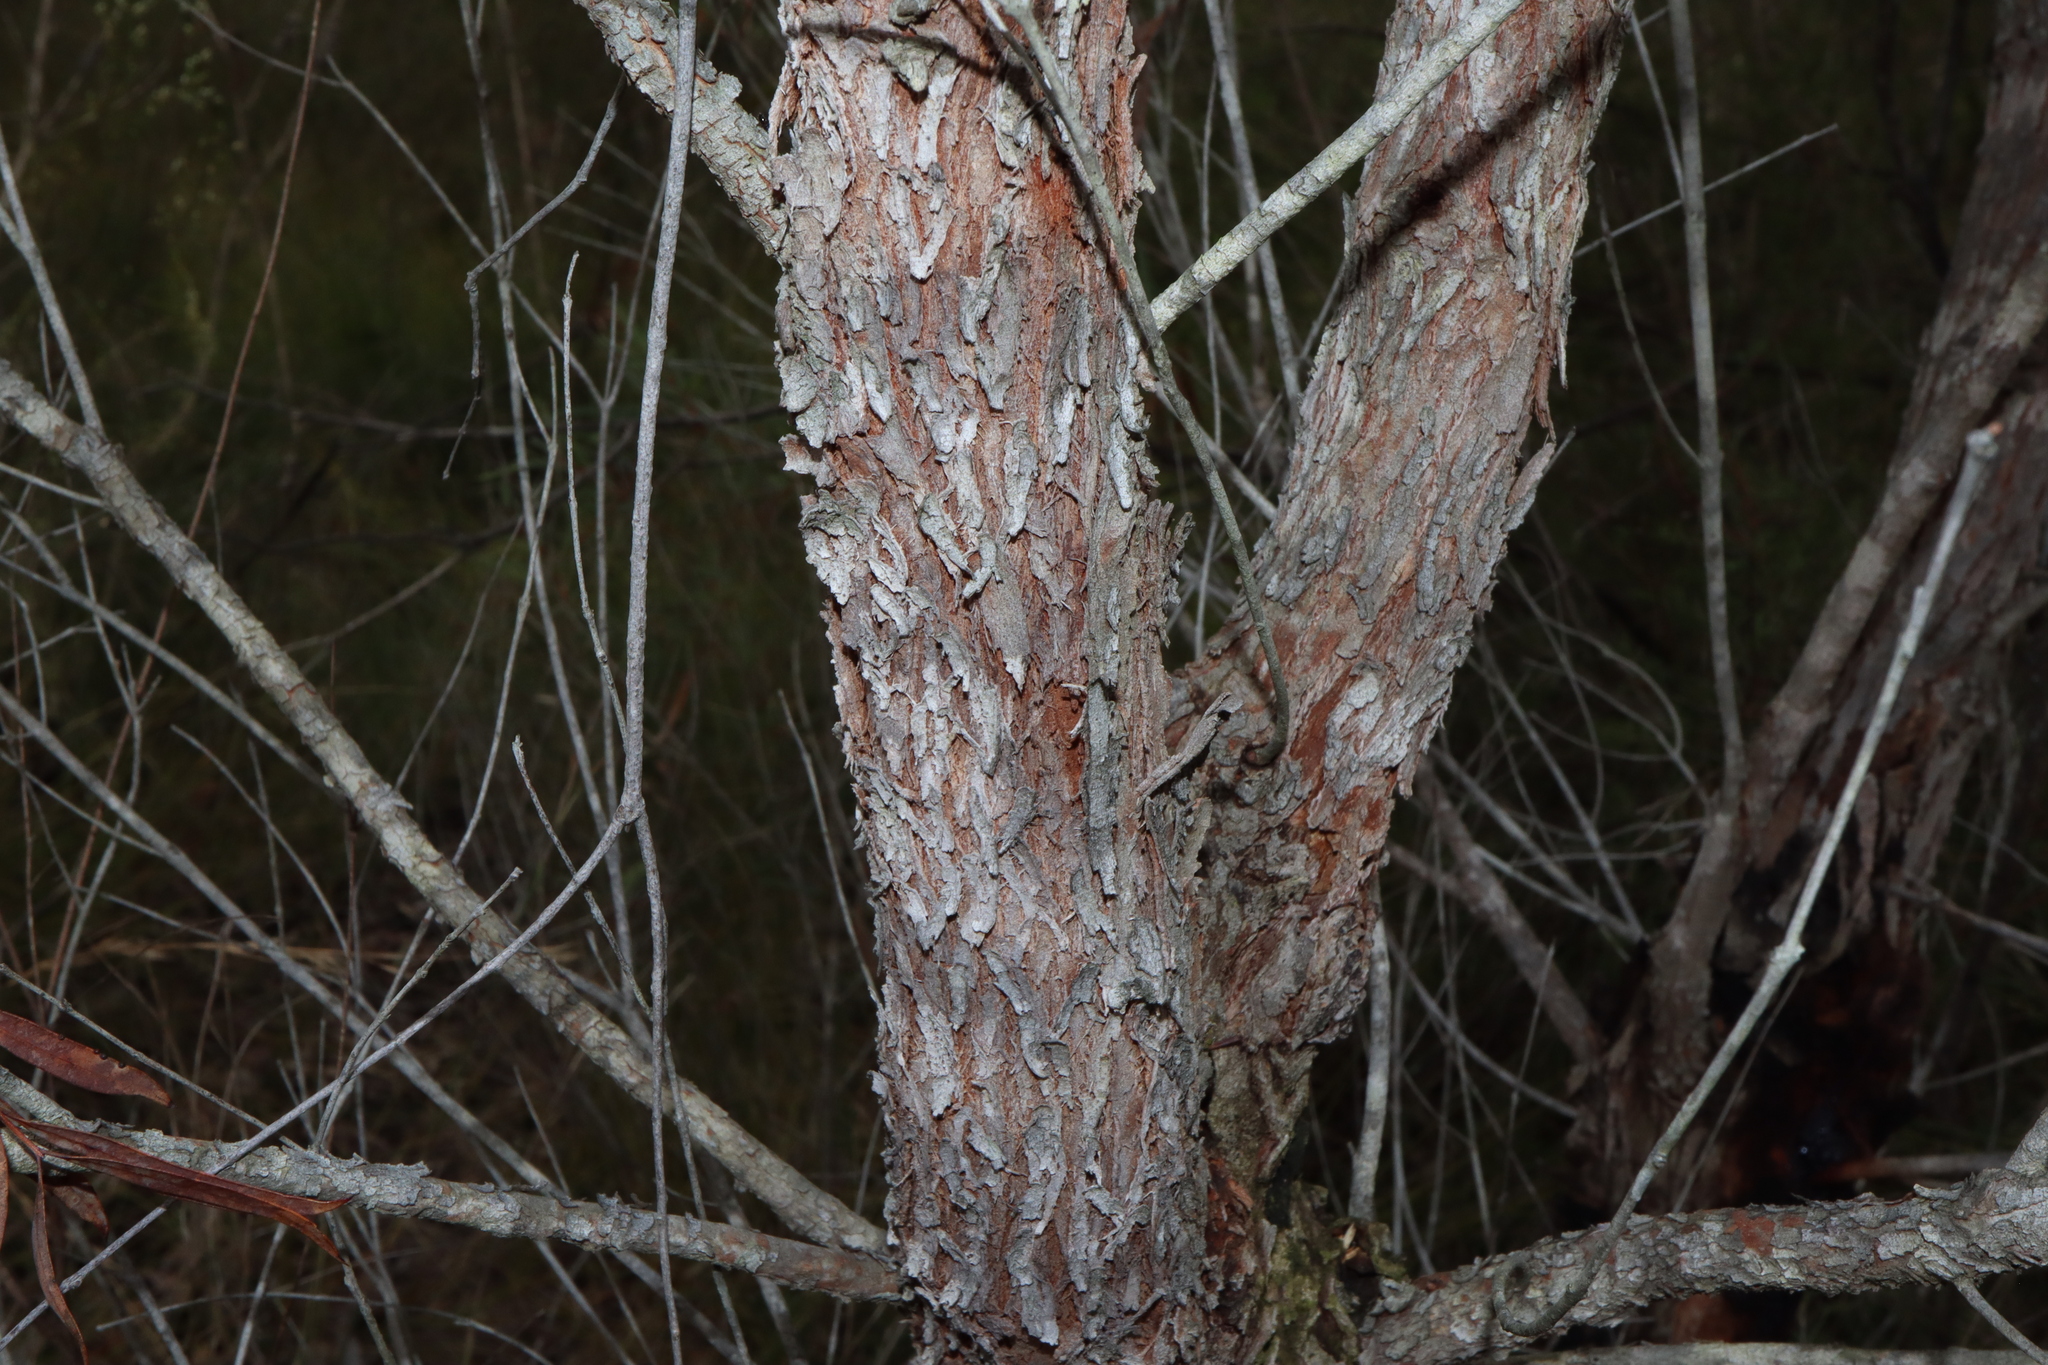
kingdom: Plantae
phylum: Tracheophyta
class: Magnoliopsida
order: Myrtales
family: Myrtaceae
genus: Angophora
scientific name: Angophora bakeri
